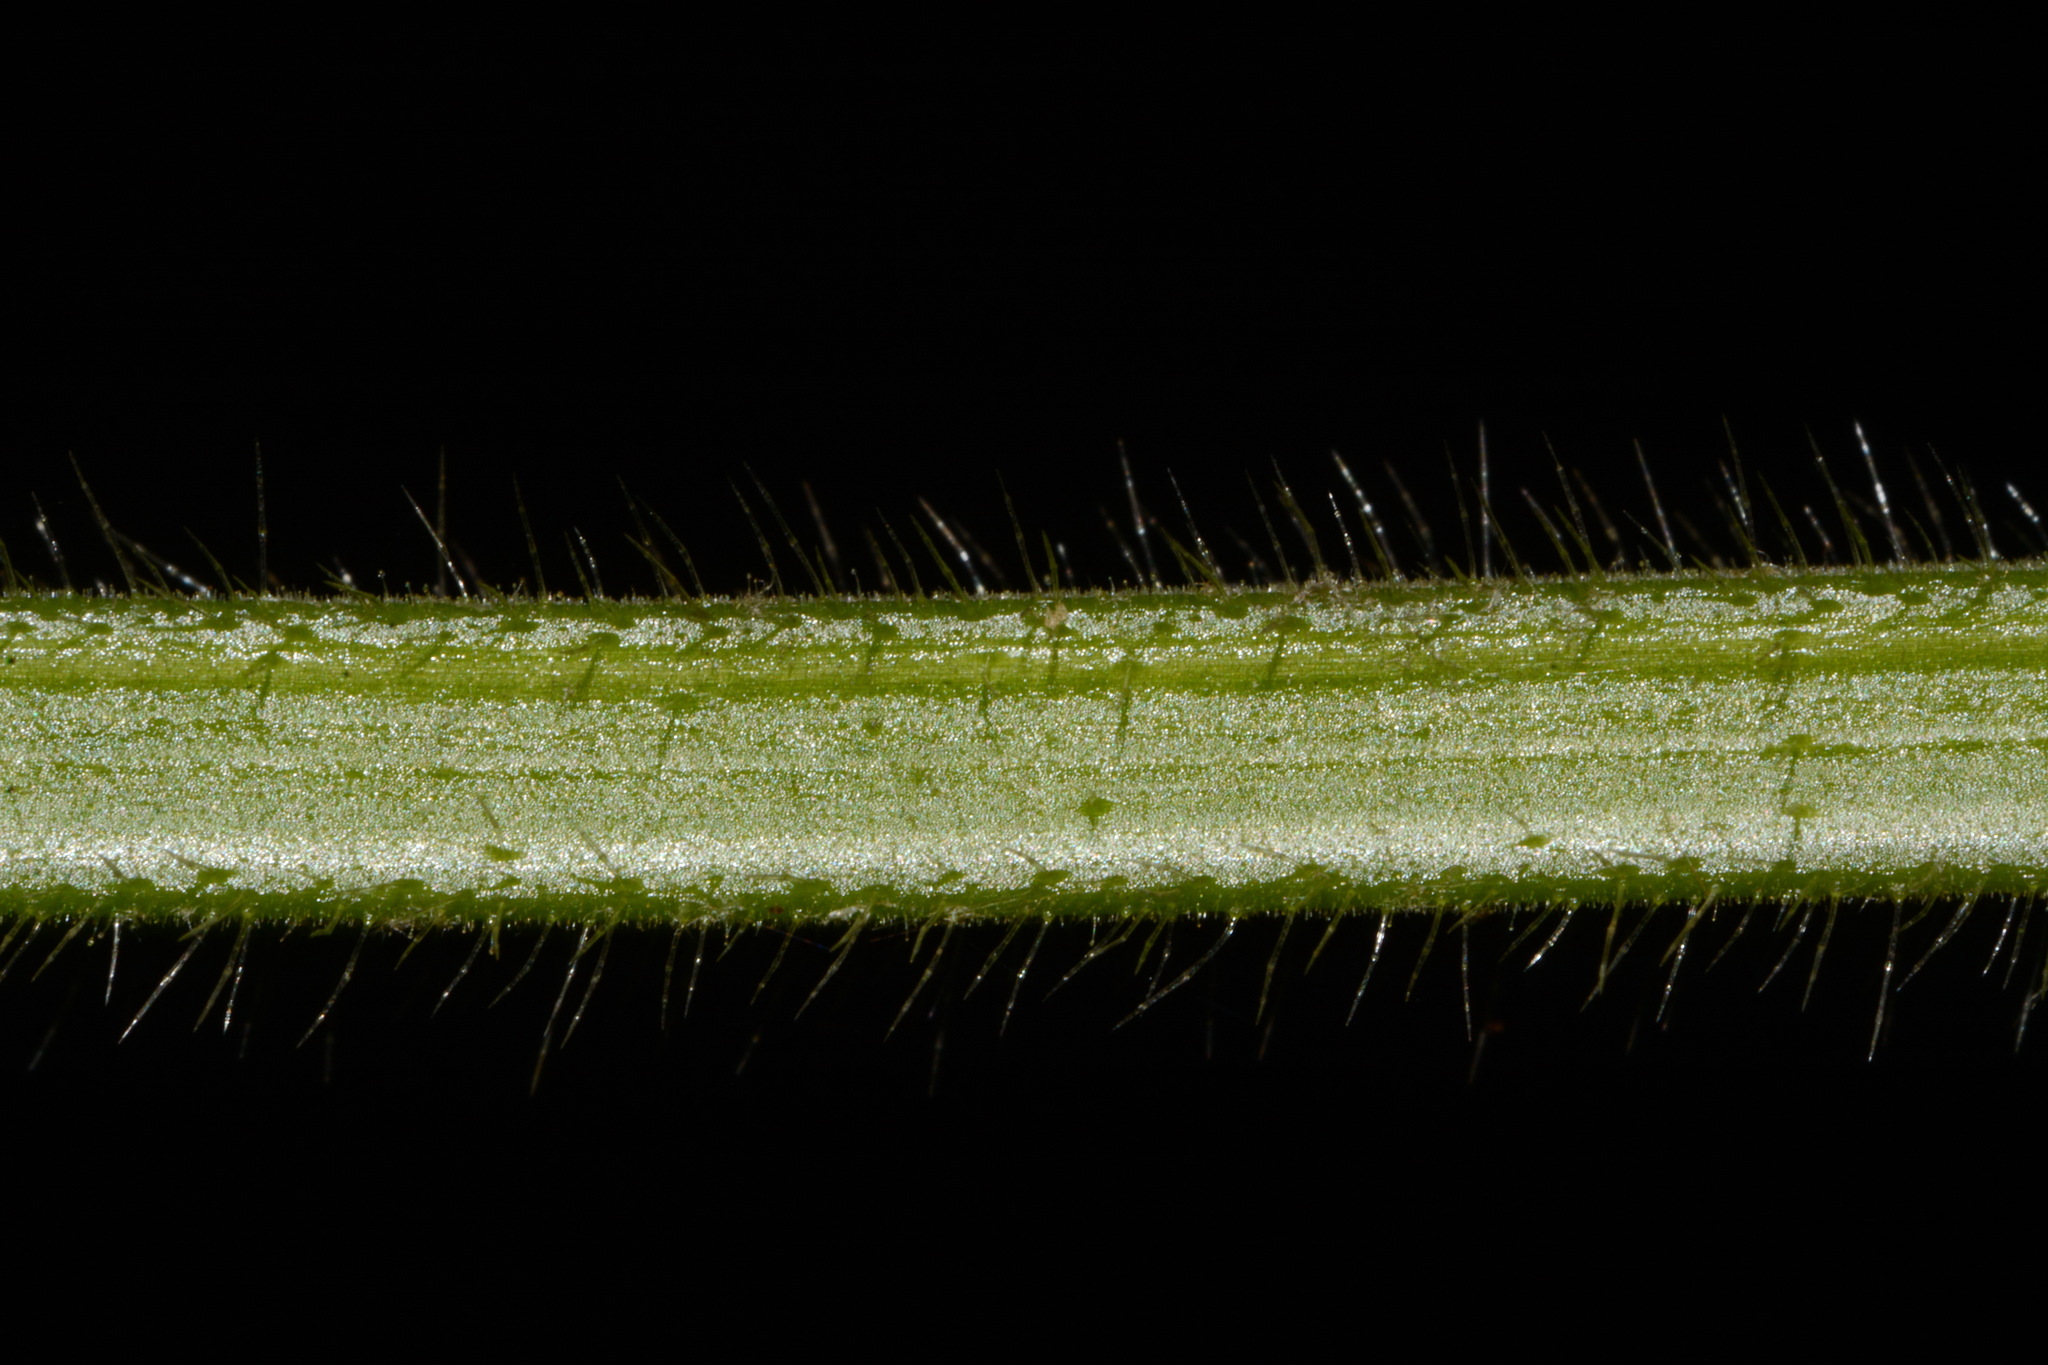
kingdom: Plantae
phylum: Tracheophyta
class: Magnoliopsida
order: Lamiales
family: Lamiaceae
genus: Stachys
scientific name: Stachys cordata
